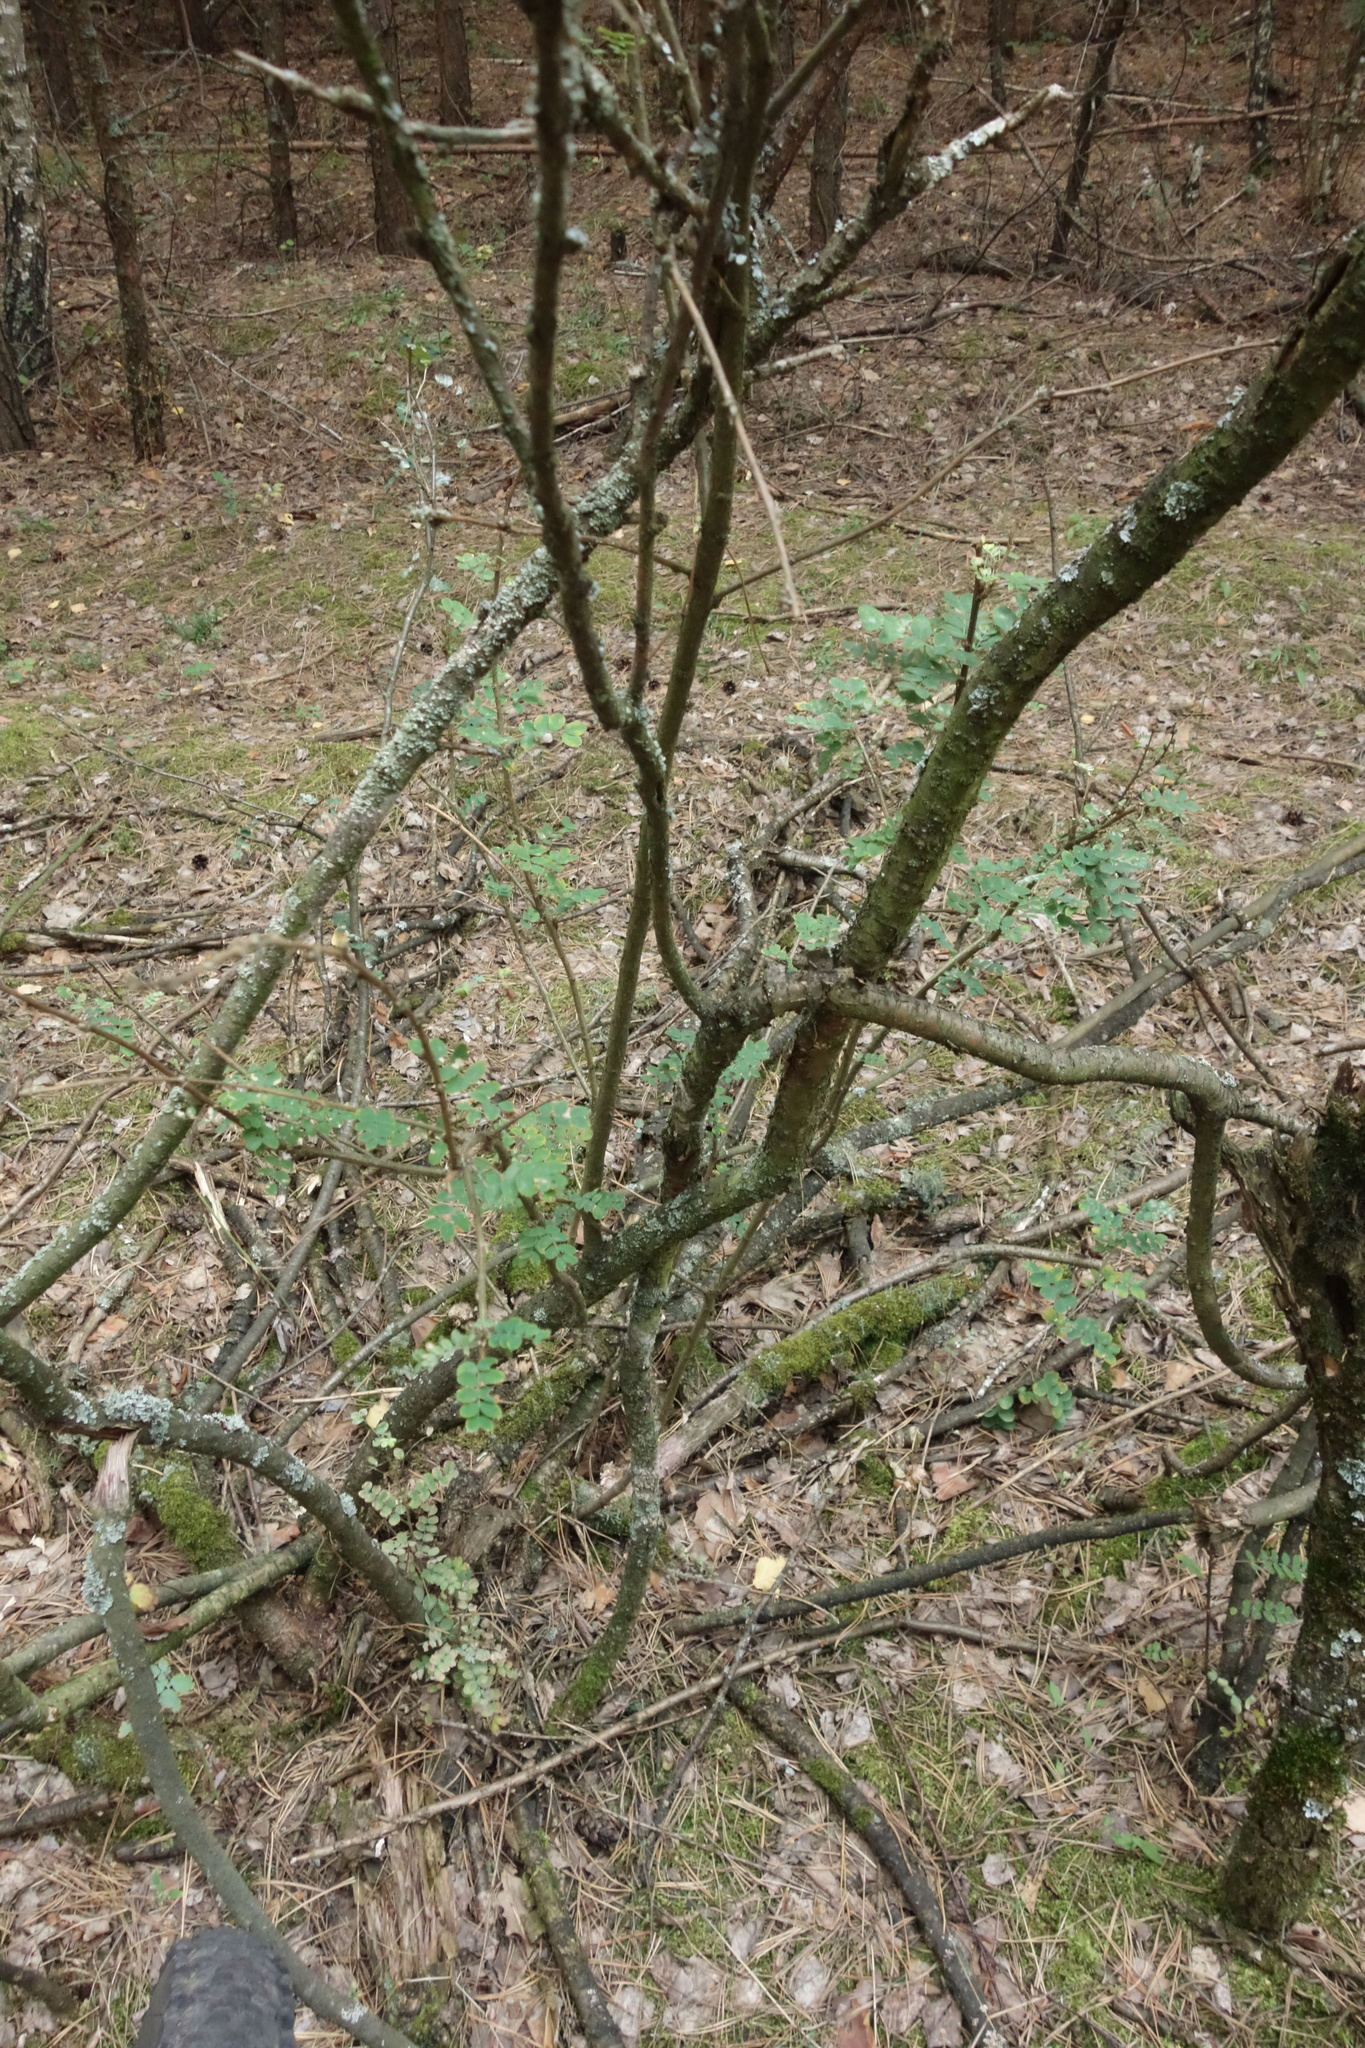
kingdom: Plantae
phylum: Tracheophyta
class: Magnoliopsida
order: Fabales
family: Fabaceae
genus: Caragana
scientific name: Caragana arborescens
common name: Siberian peashrub
